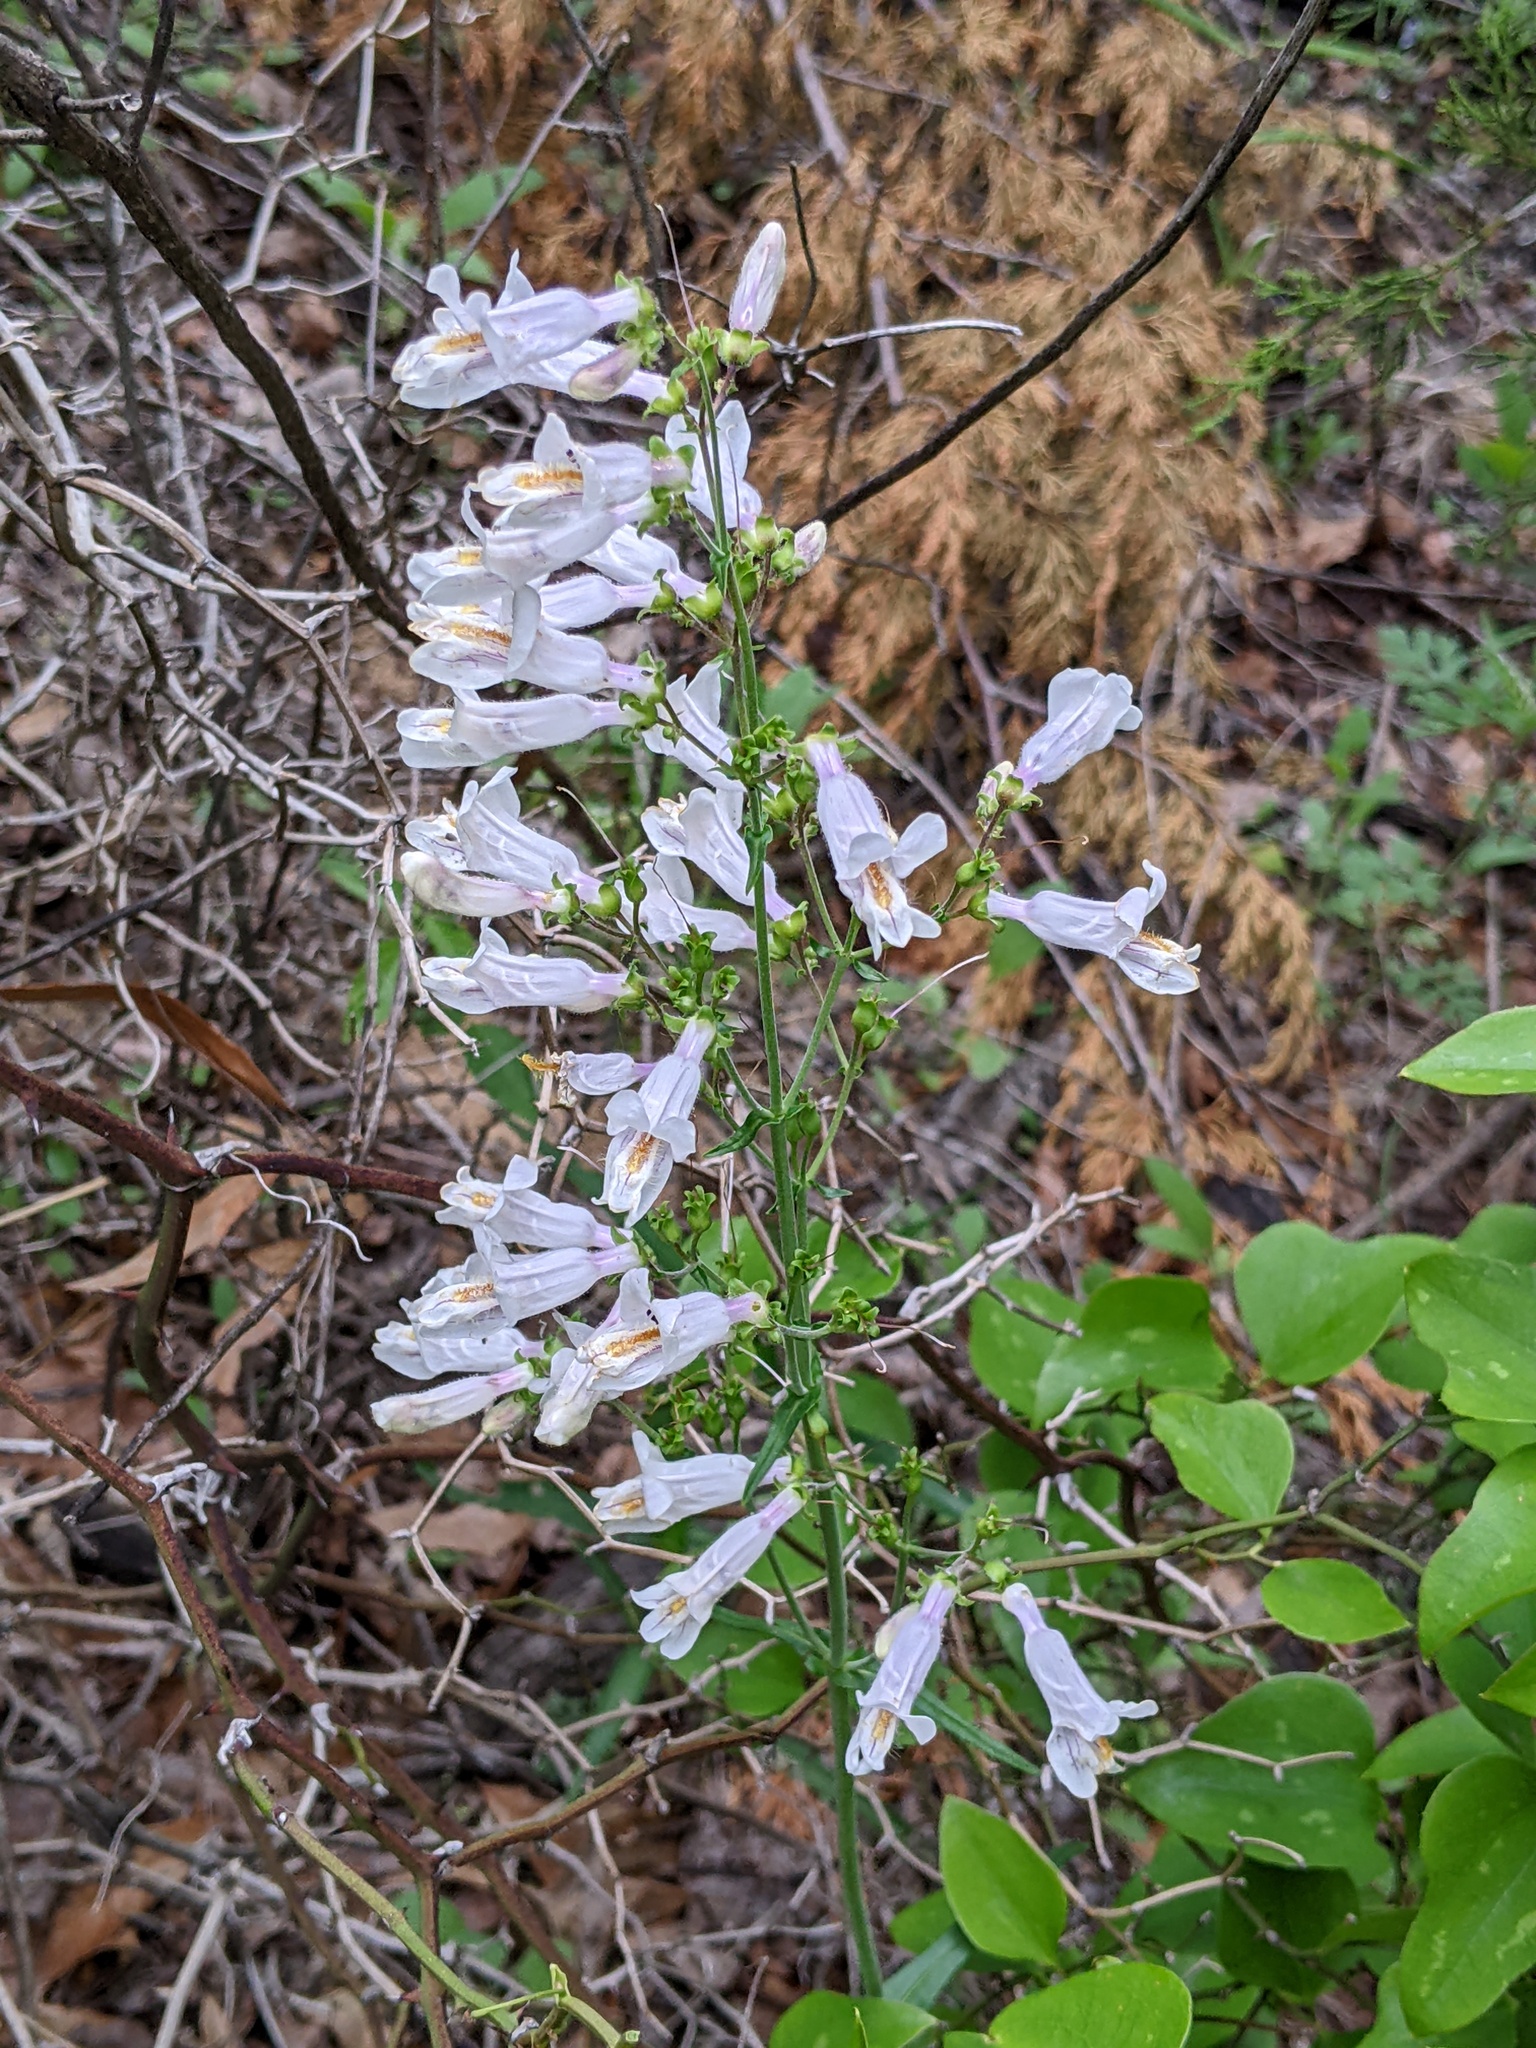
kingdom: Plantae
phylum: Tracheophyta
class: Magnoliopsida
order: Lamiales
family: Plantaginaceae
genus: Penstemon
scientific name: Penstemon laxiflorus
